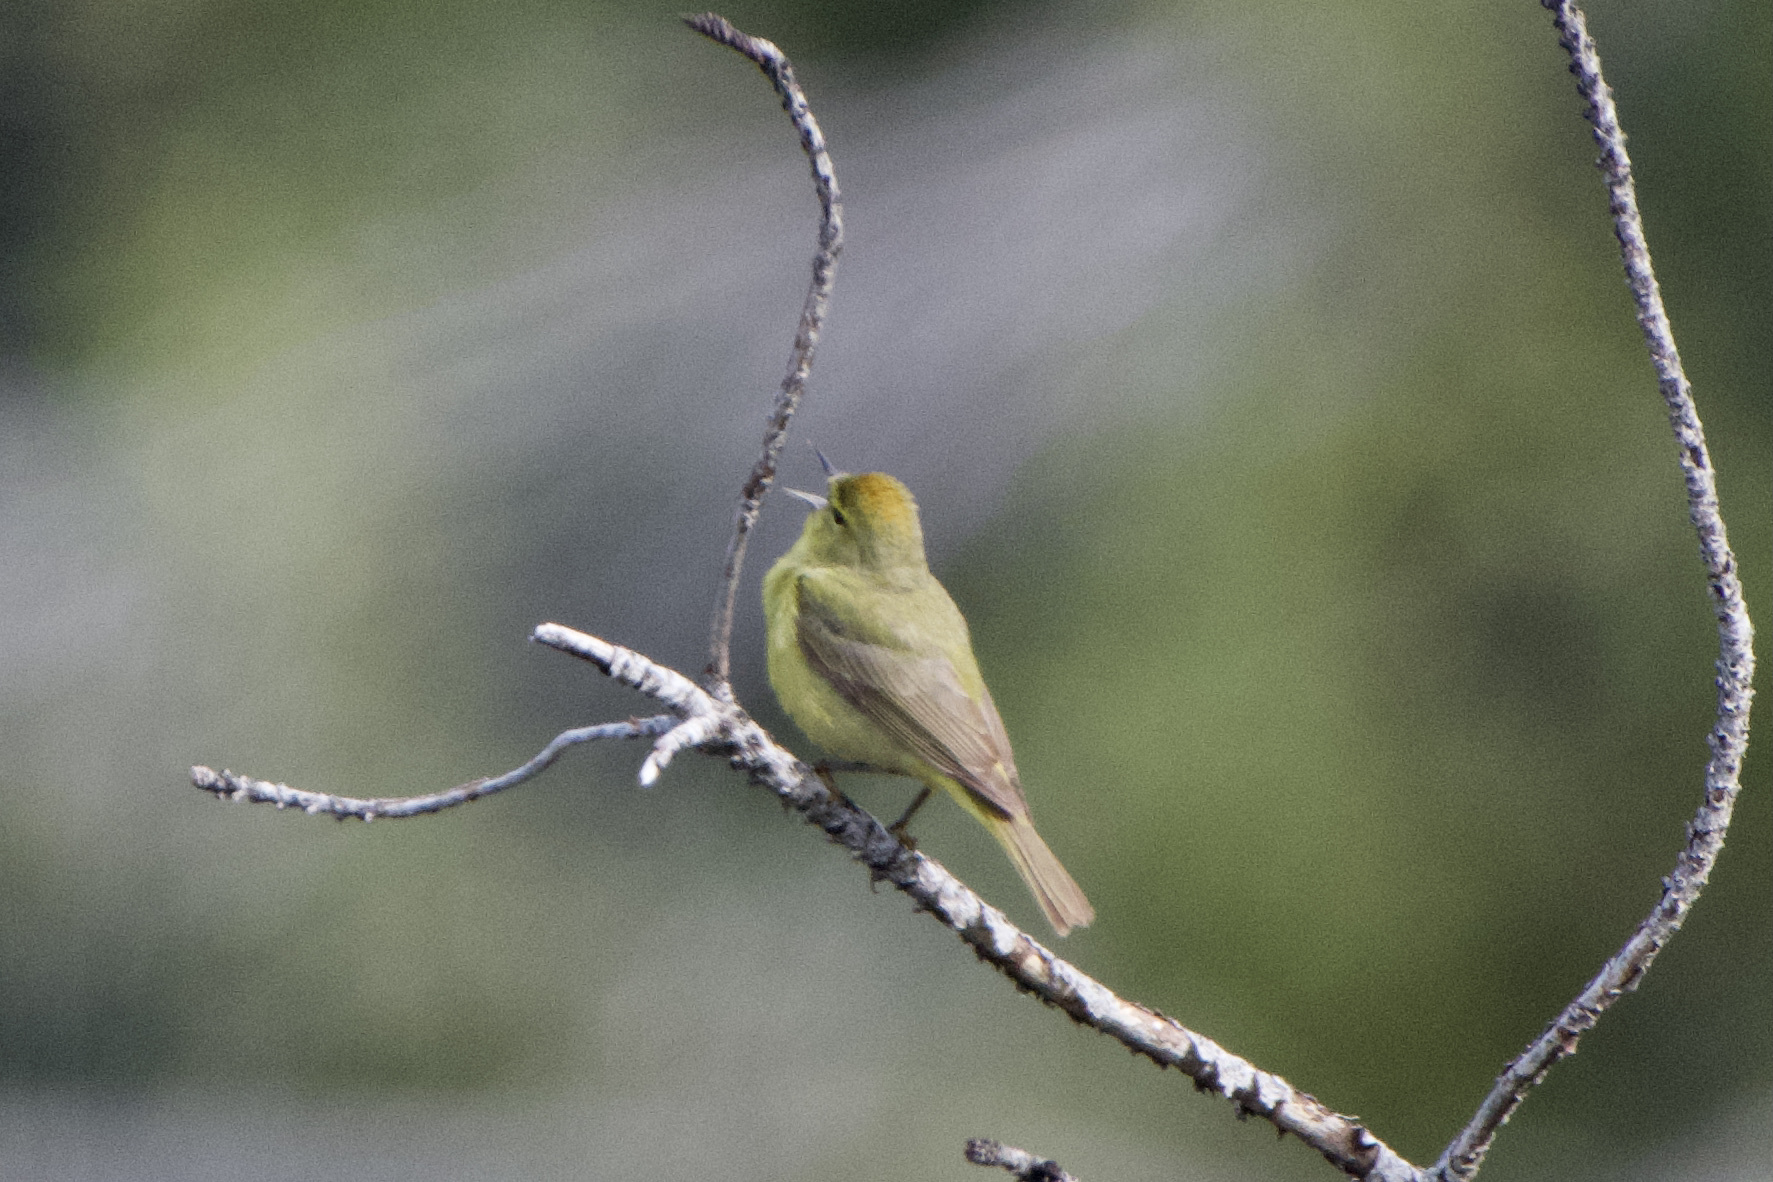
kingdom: Animalia
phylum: Chordata
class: Aves
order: Passeriformes
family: Parulidae
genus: Leiothlypis
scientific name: Leiothlypis celata
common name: Orange-crowned warbler
